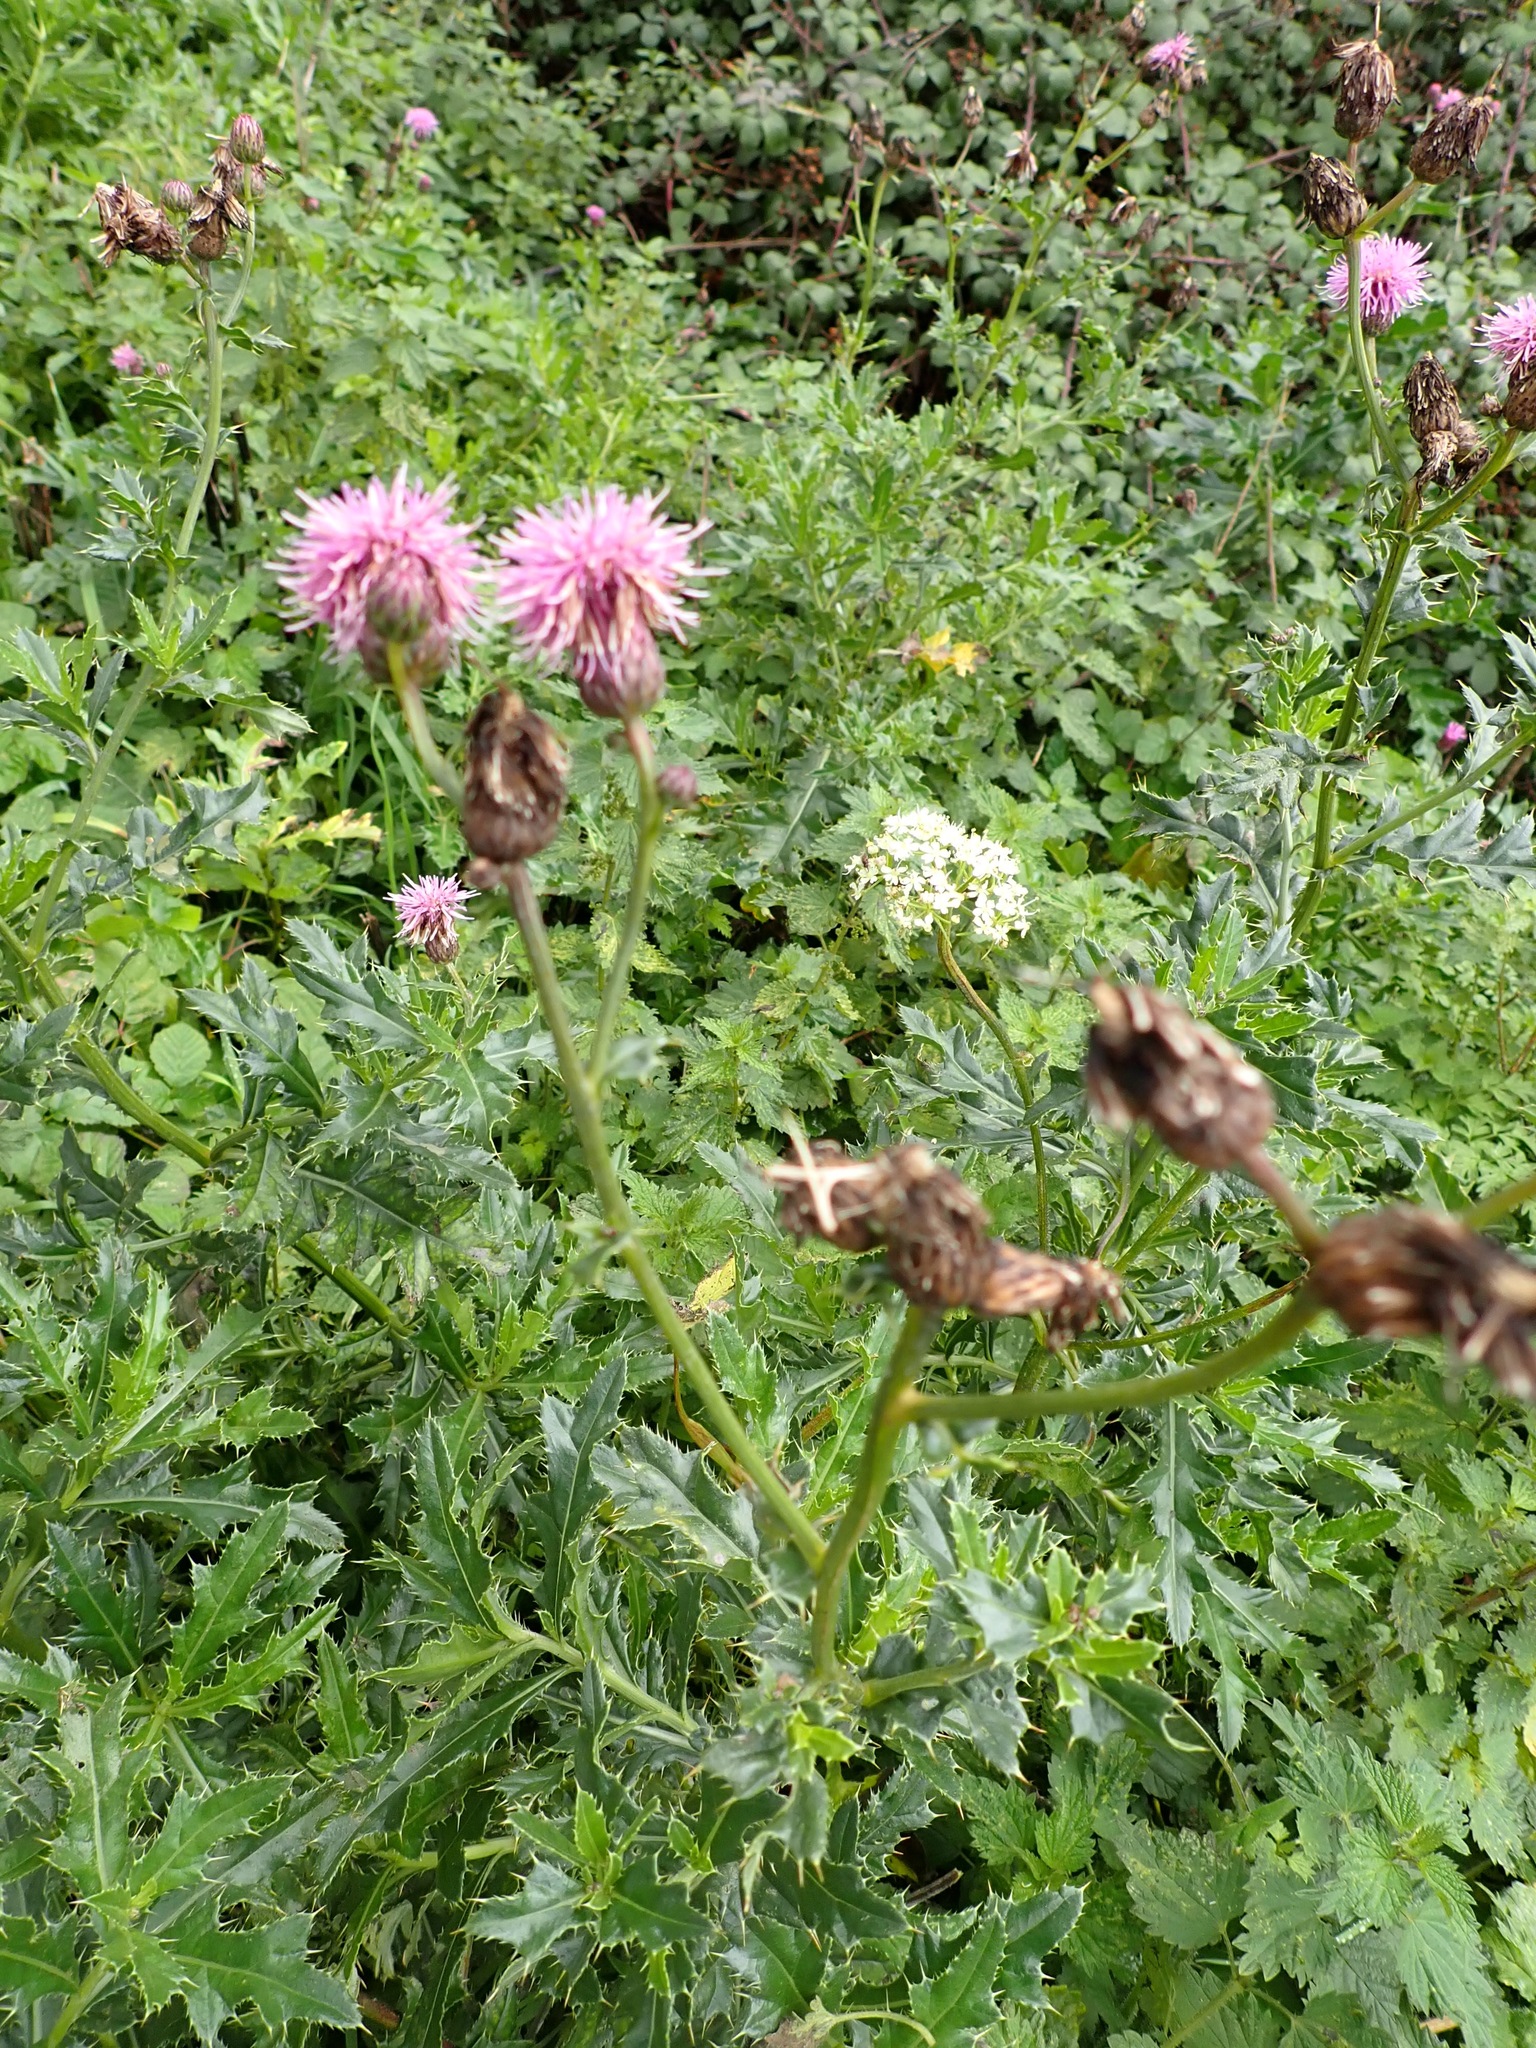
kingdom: Plantae
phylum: Tracheophyta
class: Magnoliopsida
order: Asterales
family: Asteraceae
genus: Cirsium
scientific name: Cirsium arvense
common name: Creeping thistle
